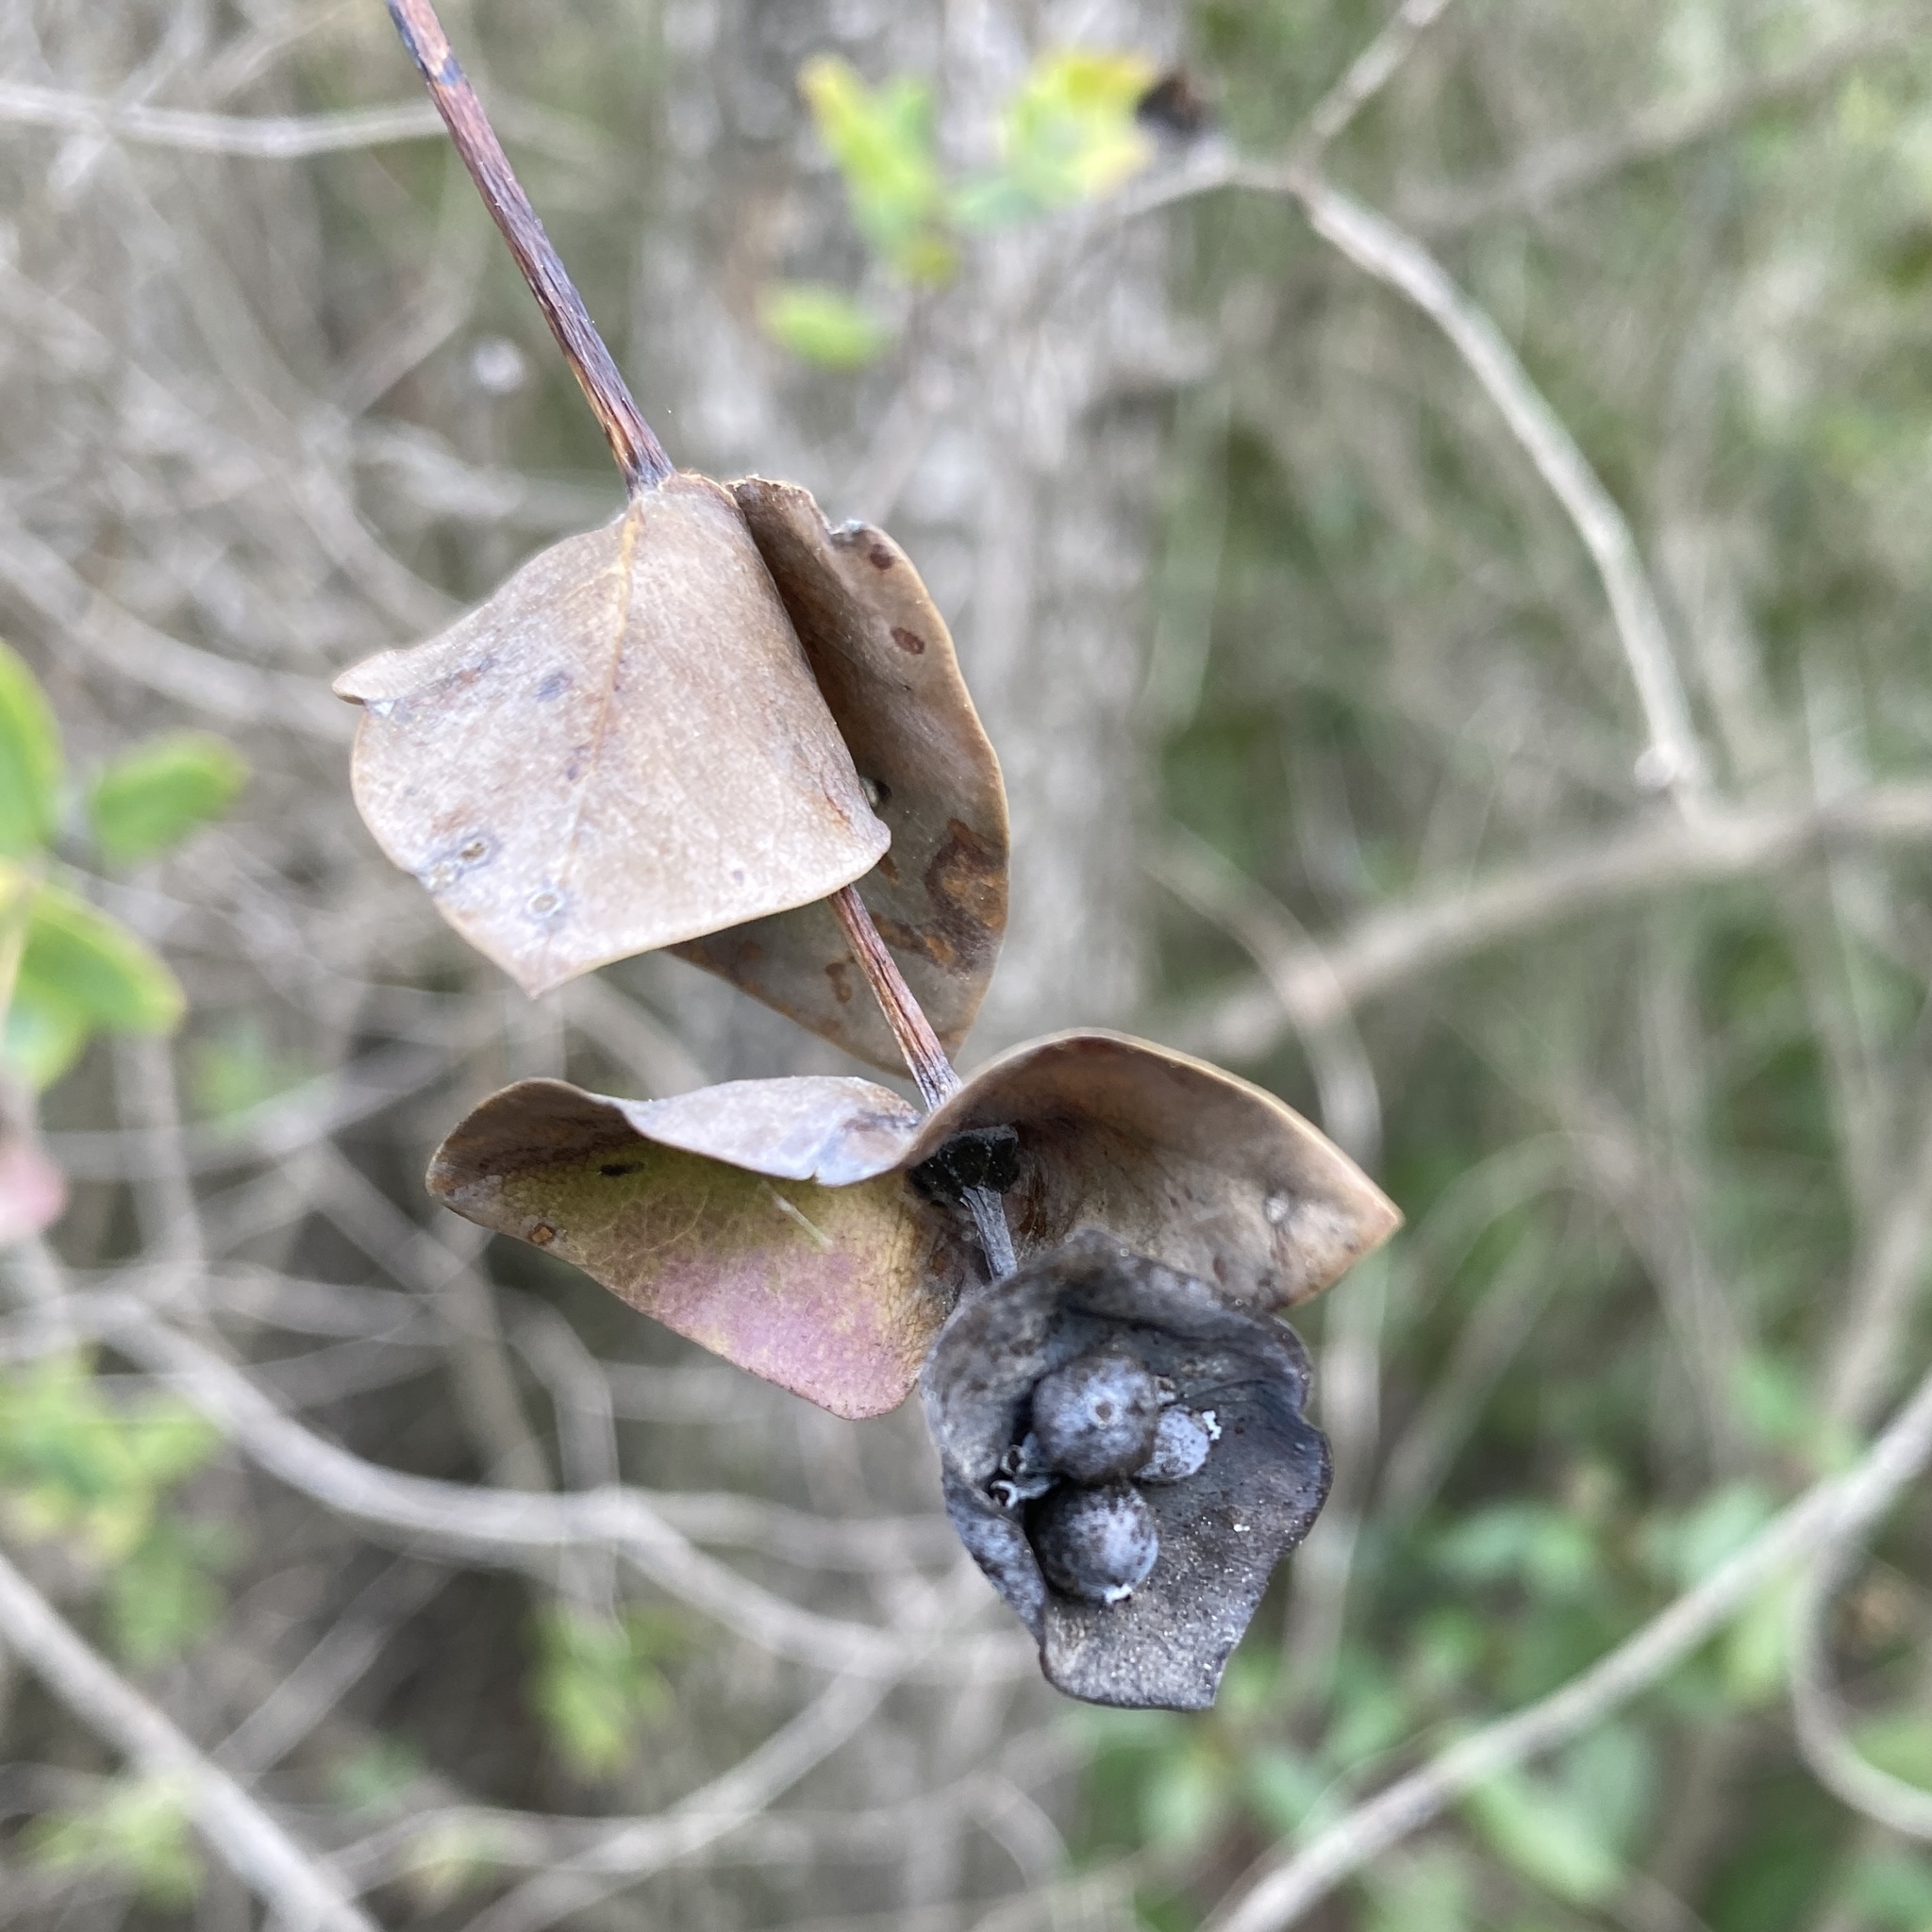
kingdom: Plantae
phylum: Tracheophyta
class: Magnoliopsida
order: Dipsacales
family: Caprifoliaceae
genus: Lonicera
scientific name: Lonicera implexa
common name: Minorca honeysuckle
